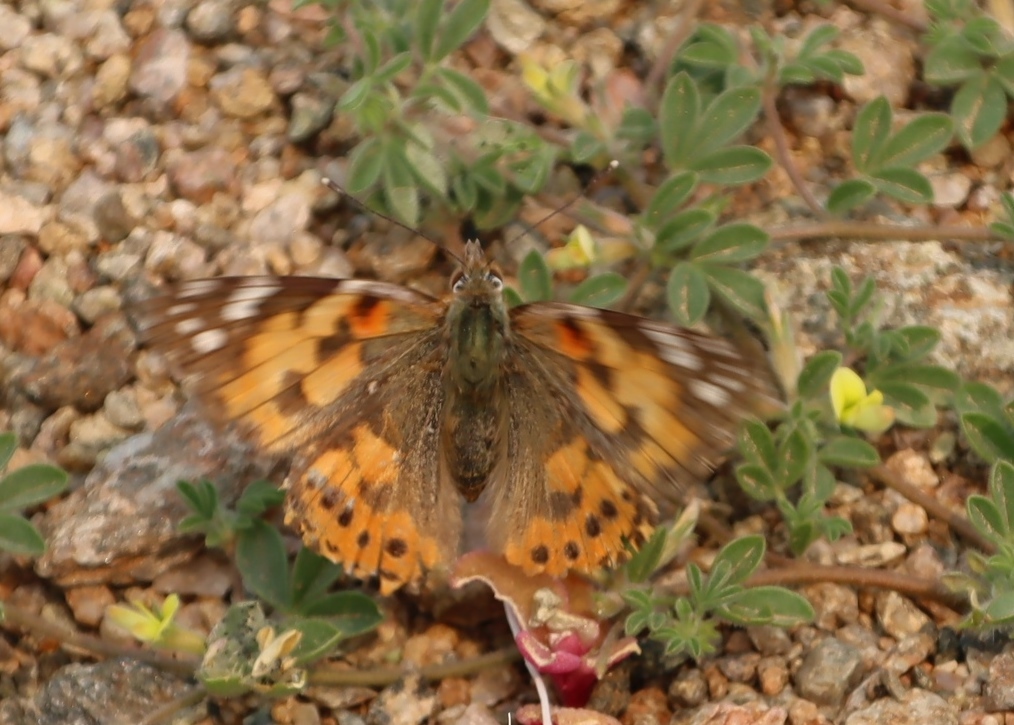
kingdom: Animalia
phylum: Arthropoda
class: Insecta
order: Lepidoptera
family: Nymphalidae
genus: Vanessa
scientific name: Vanessa cardui
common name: Painted lady
